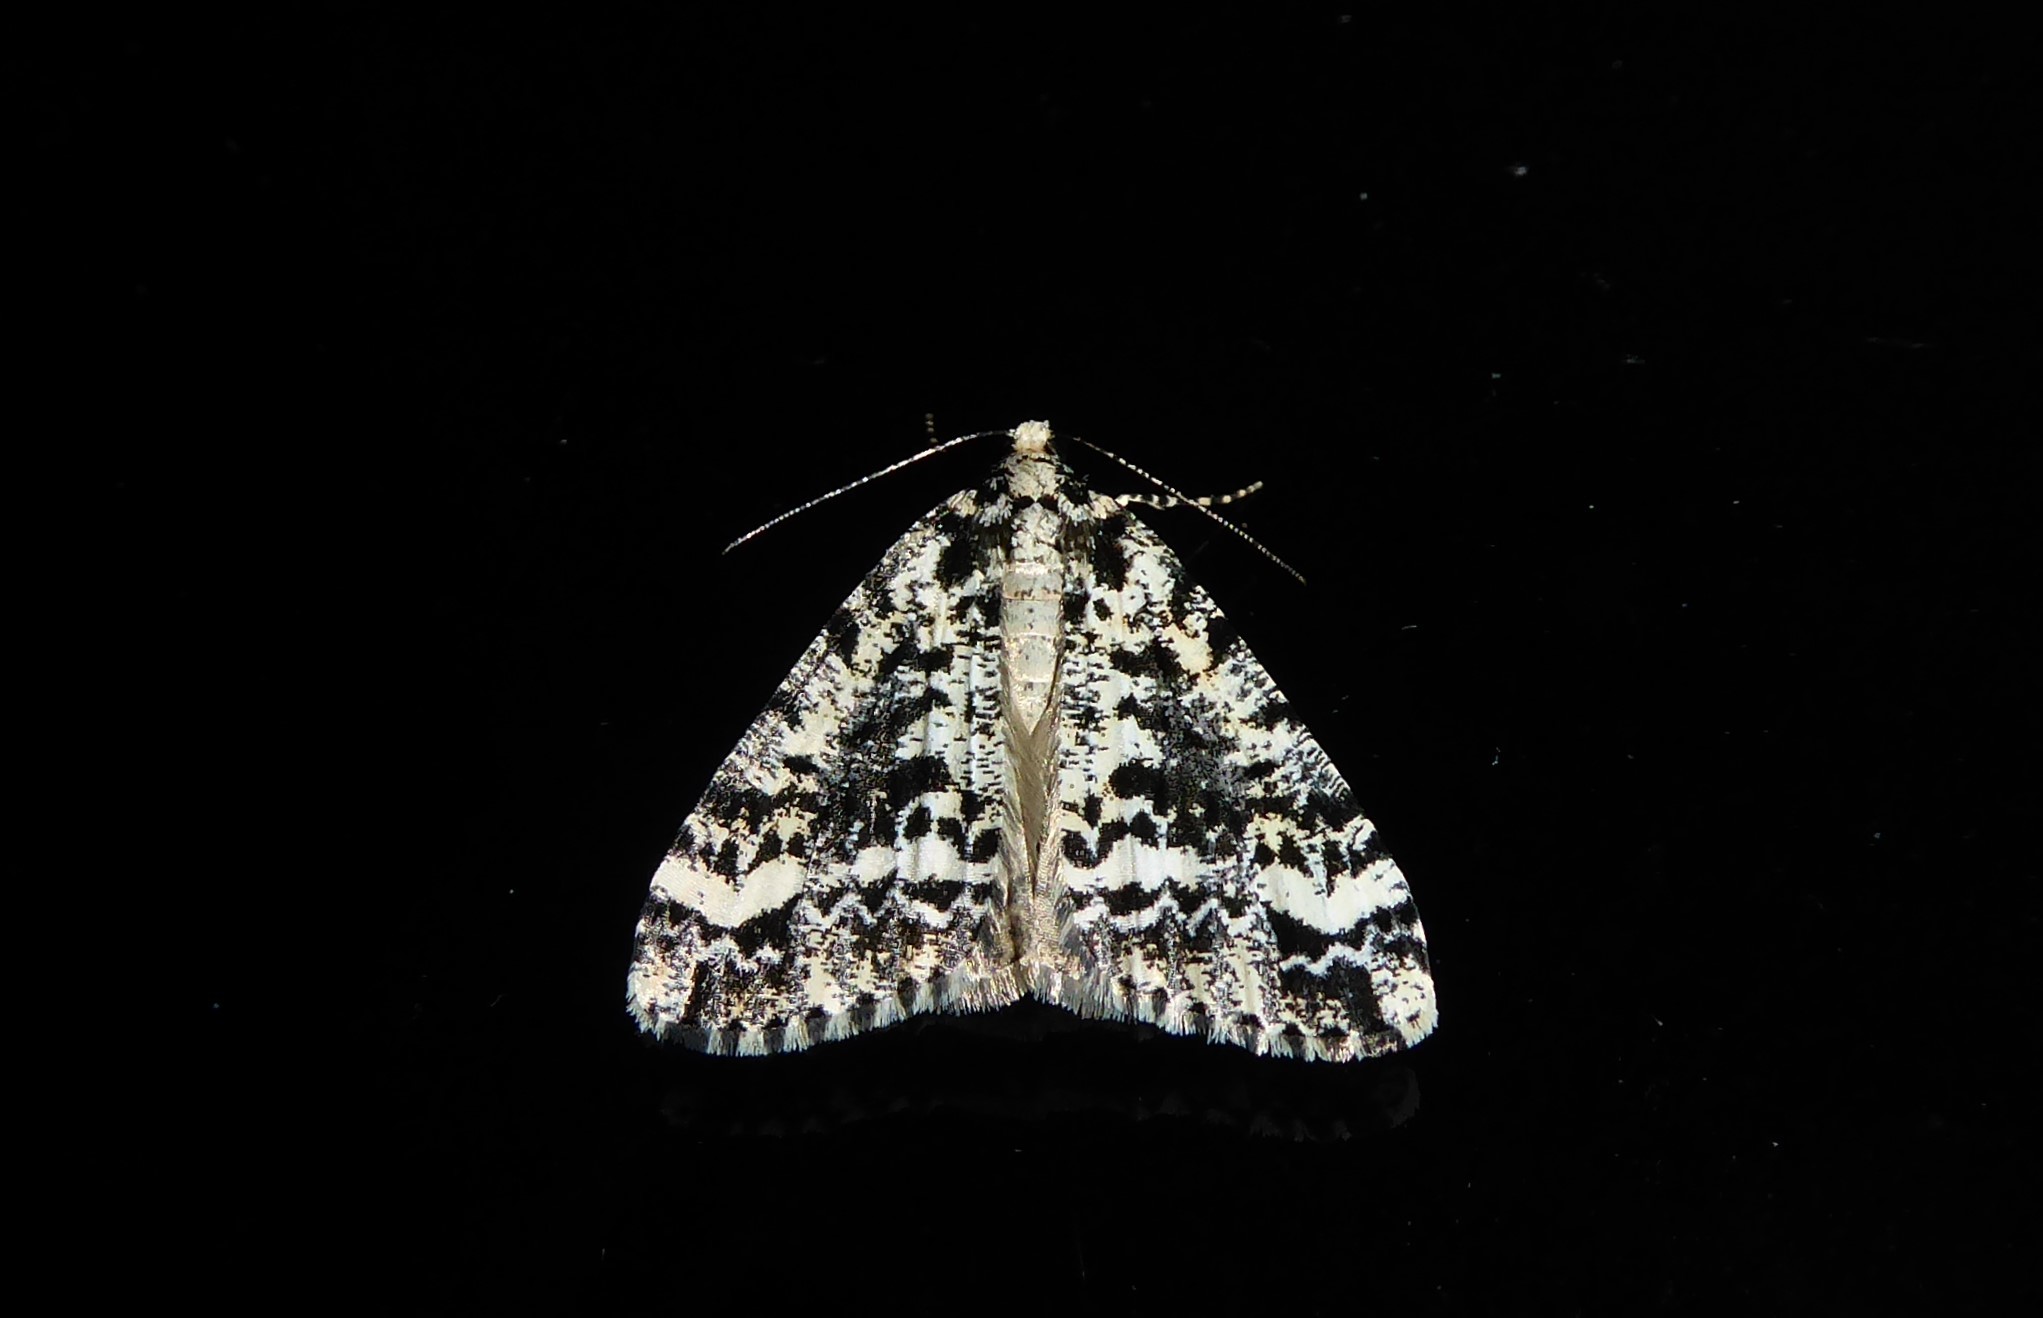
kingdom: Animalia
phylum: Arthropoda
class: Insecta
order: Lepidoptera
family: Geometridae
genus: Pseudocoremia
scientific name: Pseudocoremia leucelaea
